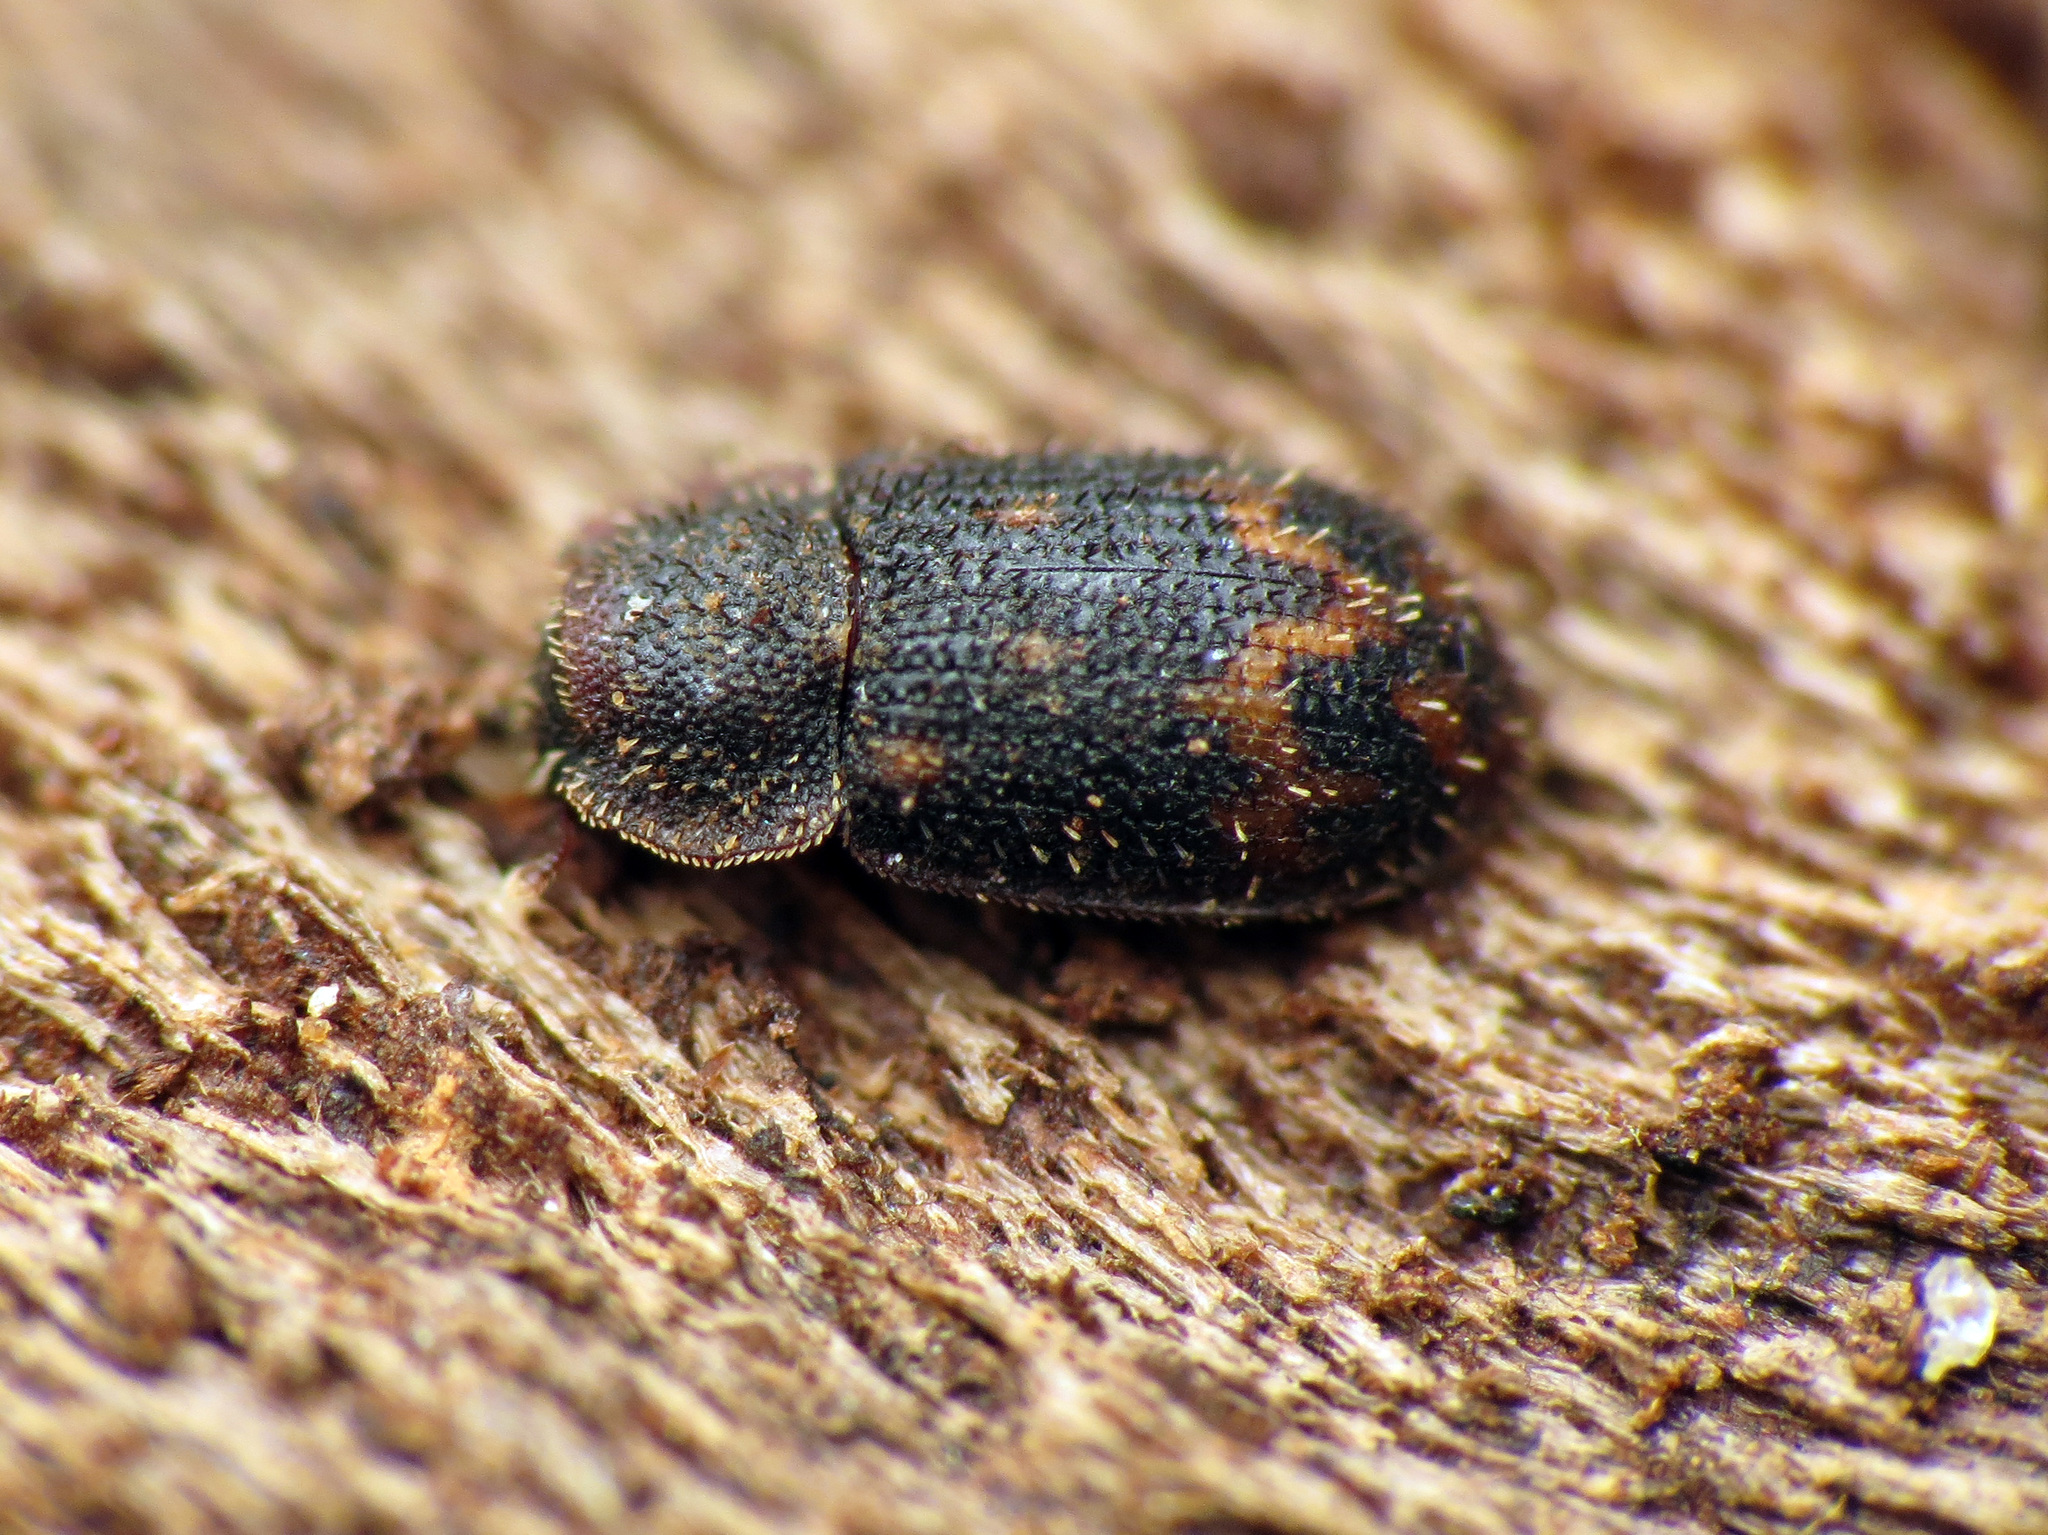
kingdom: Animalia
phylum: Arthropoda
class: Insecta
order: Coleoptera
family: Zopheridae
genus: Eucicones
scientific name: Eucicones marginalis
